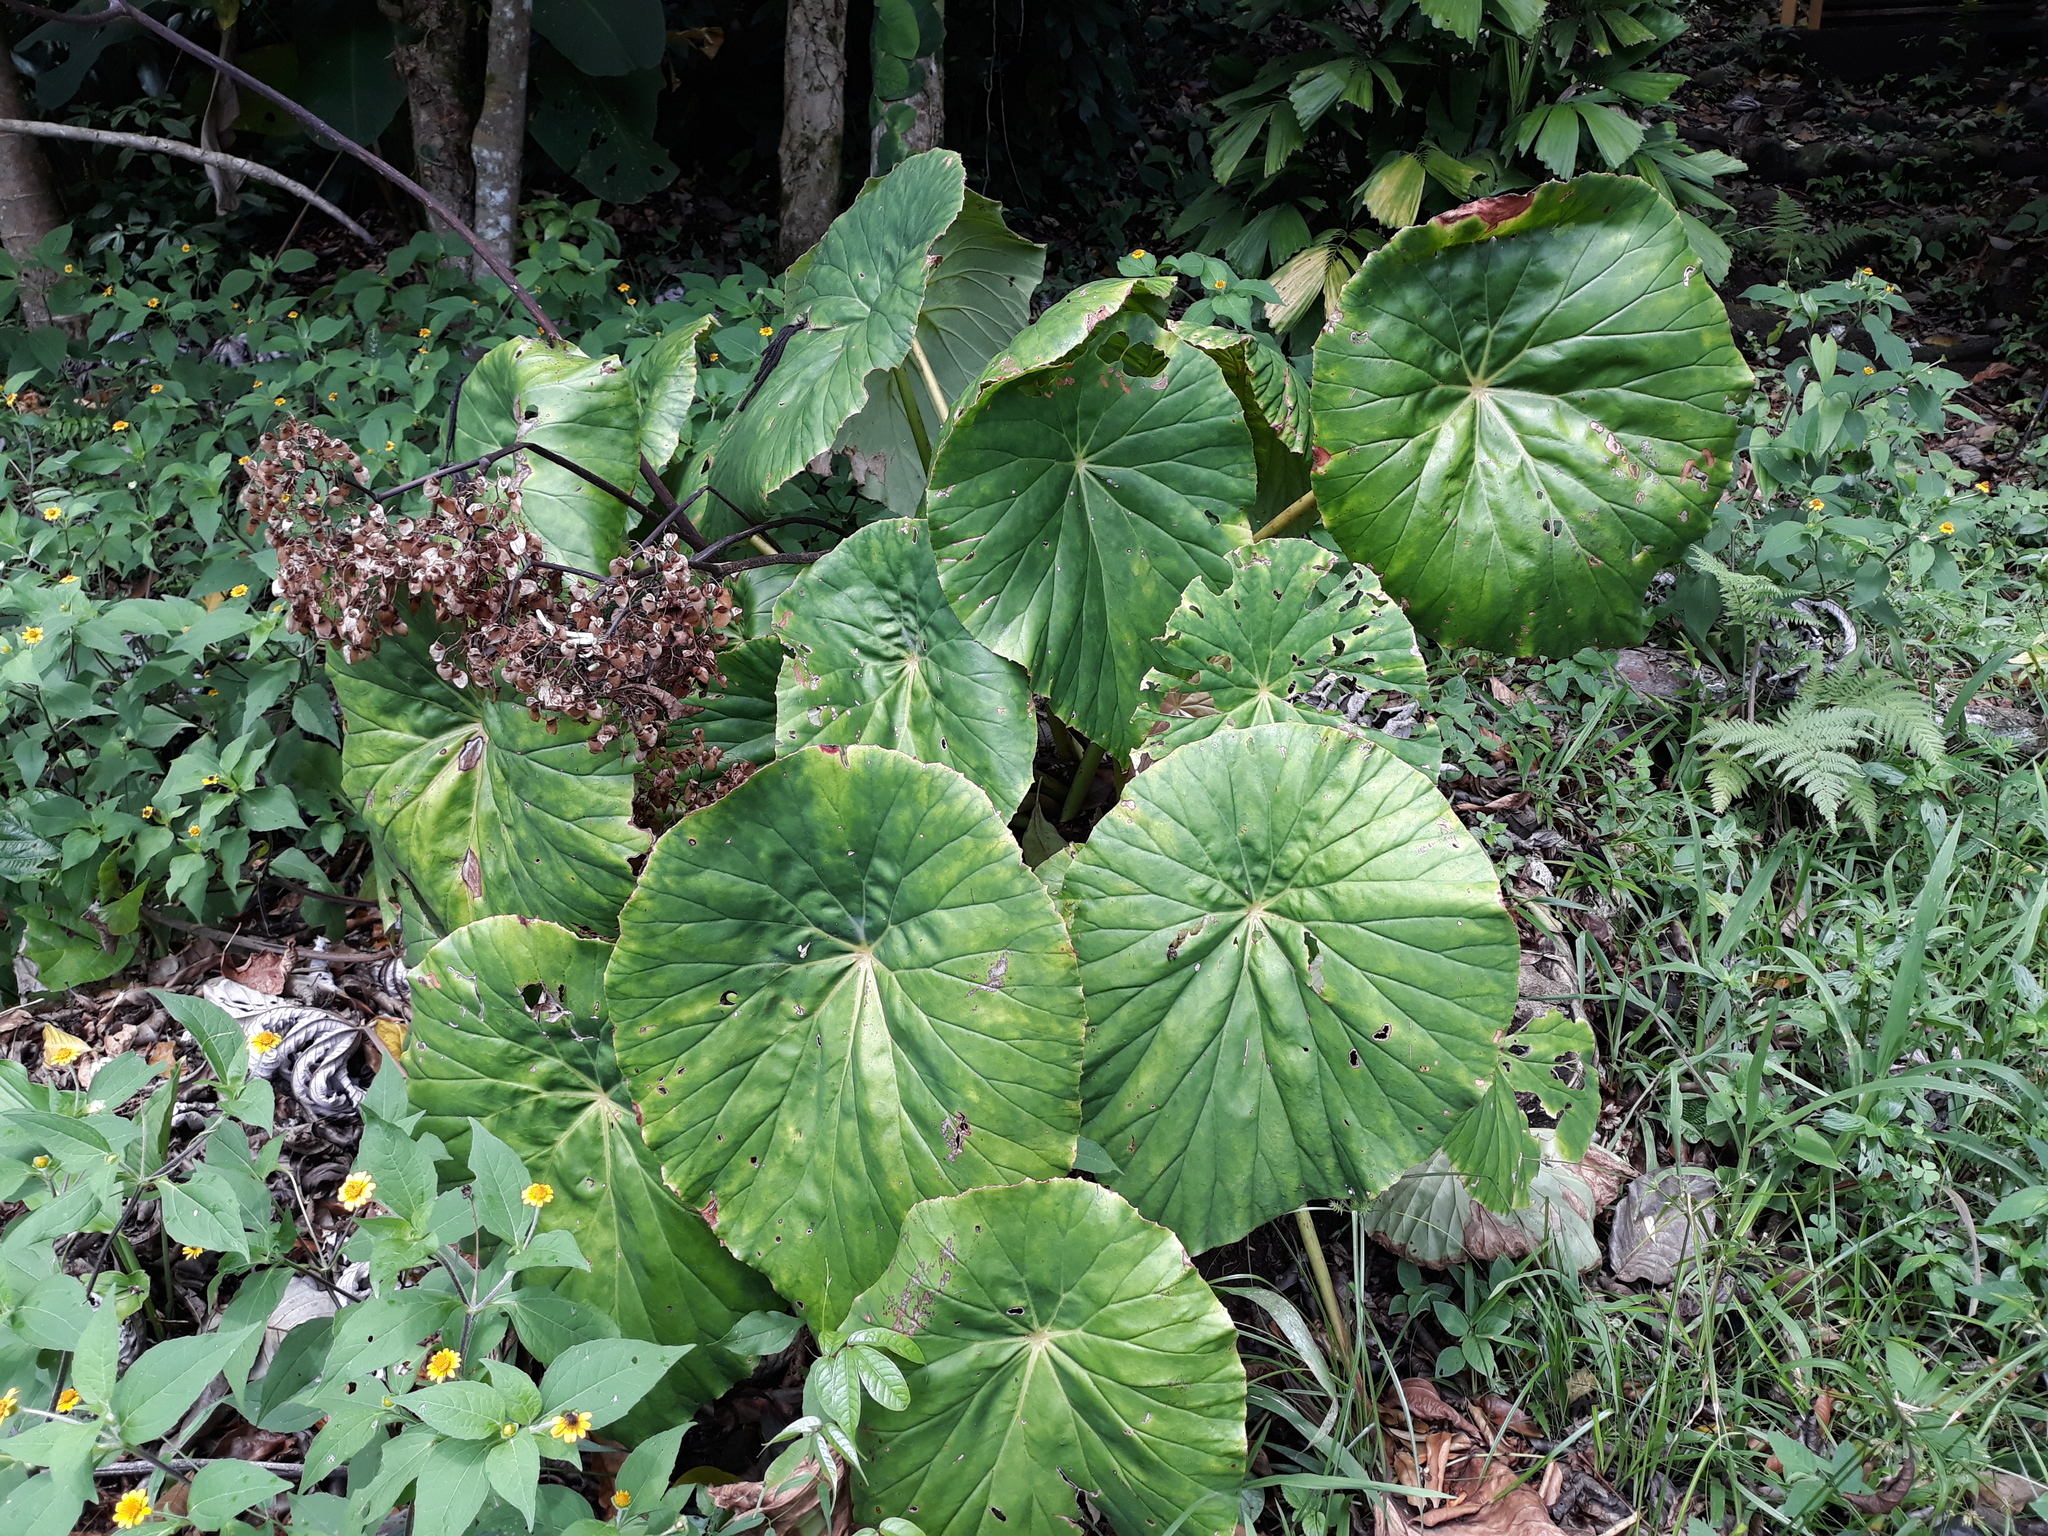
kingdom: Plantae
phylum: Tracheophyta
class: Magnoliopsida
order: Cucurbitales
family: Begoniaceae
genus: Begonia
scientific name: Begonia nelumbiifolia
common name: Lilypad begonia
